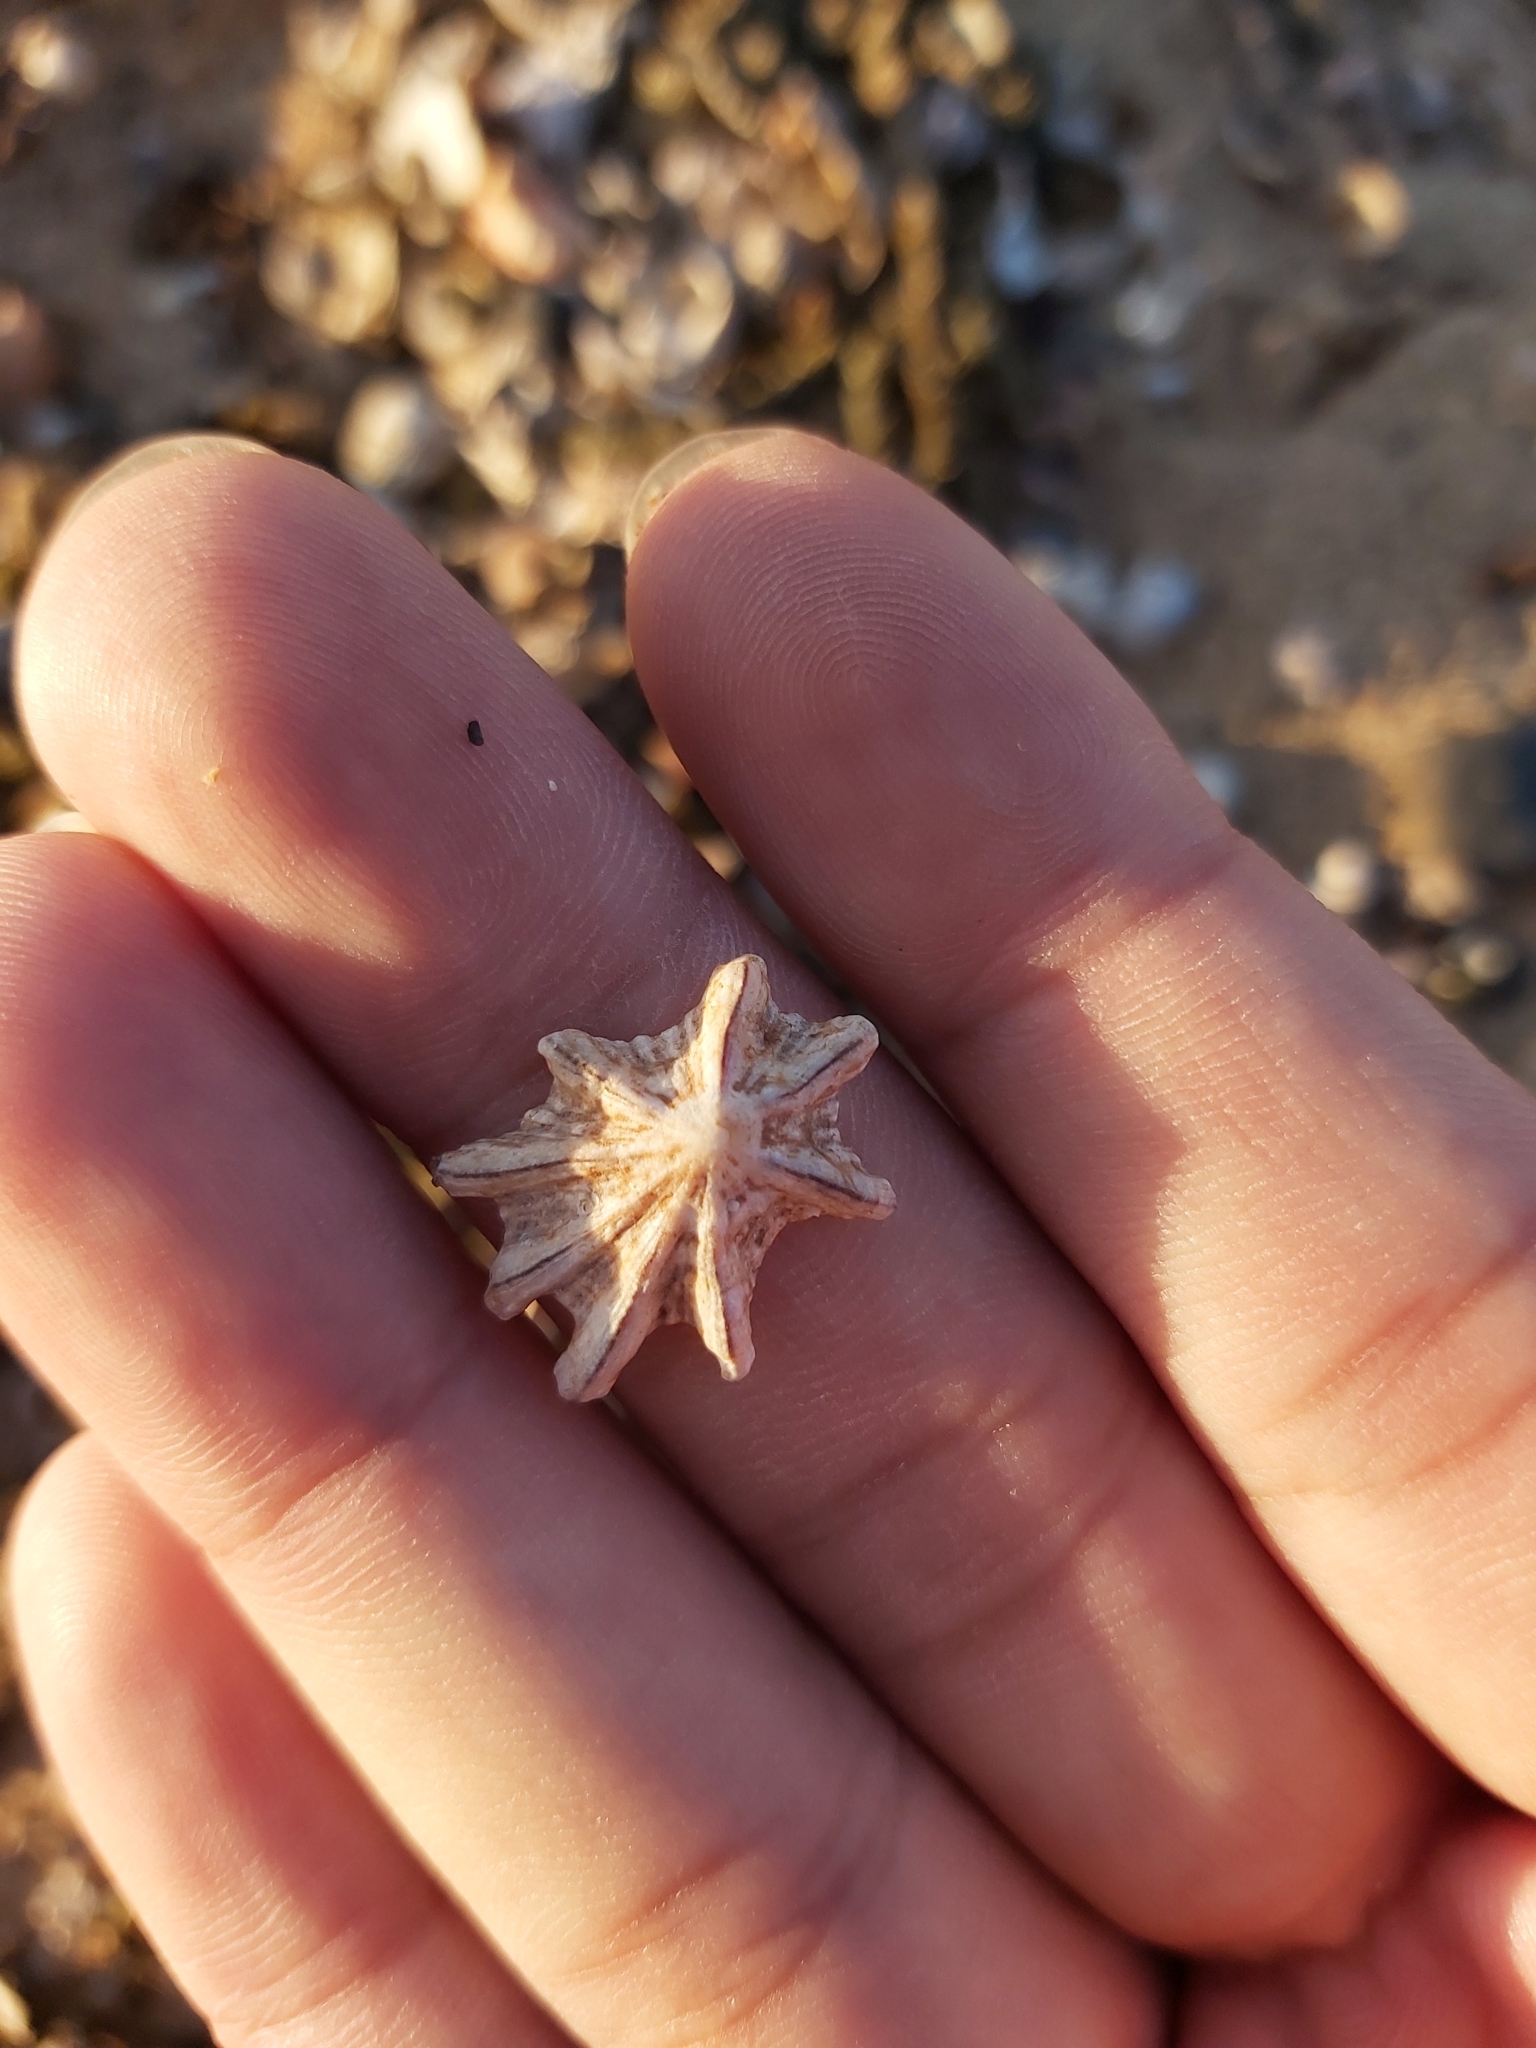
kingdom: Animalia
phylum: Mollusca
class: Gastropoda
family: Patellidae
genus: Scutellastra
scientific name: Scutellastra chapmani
